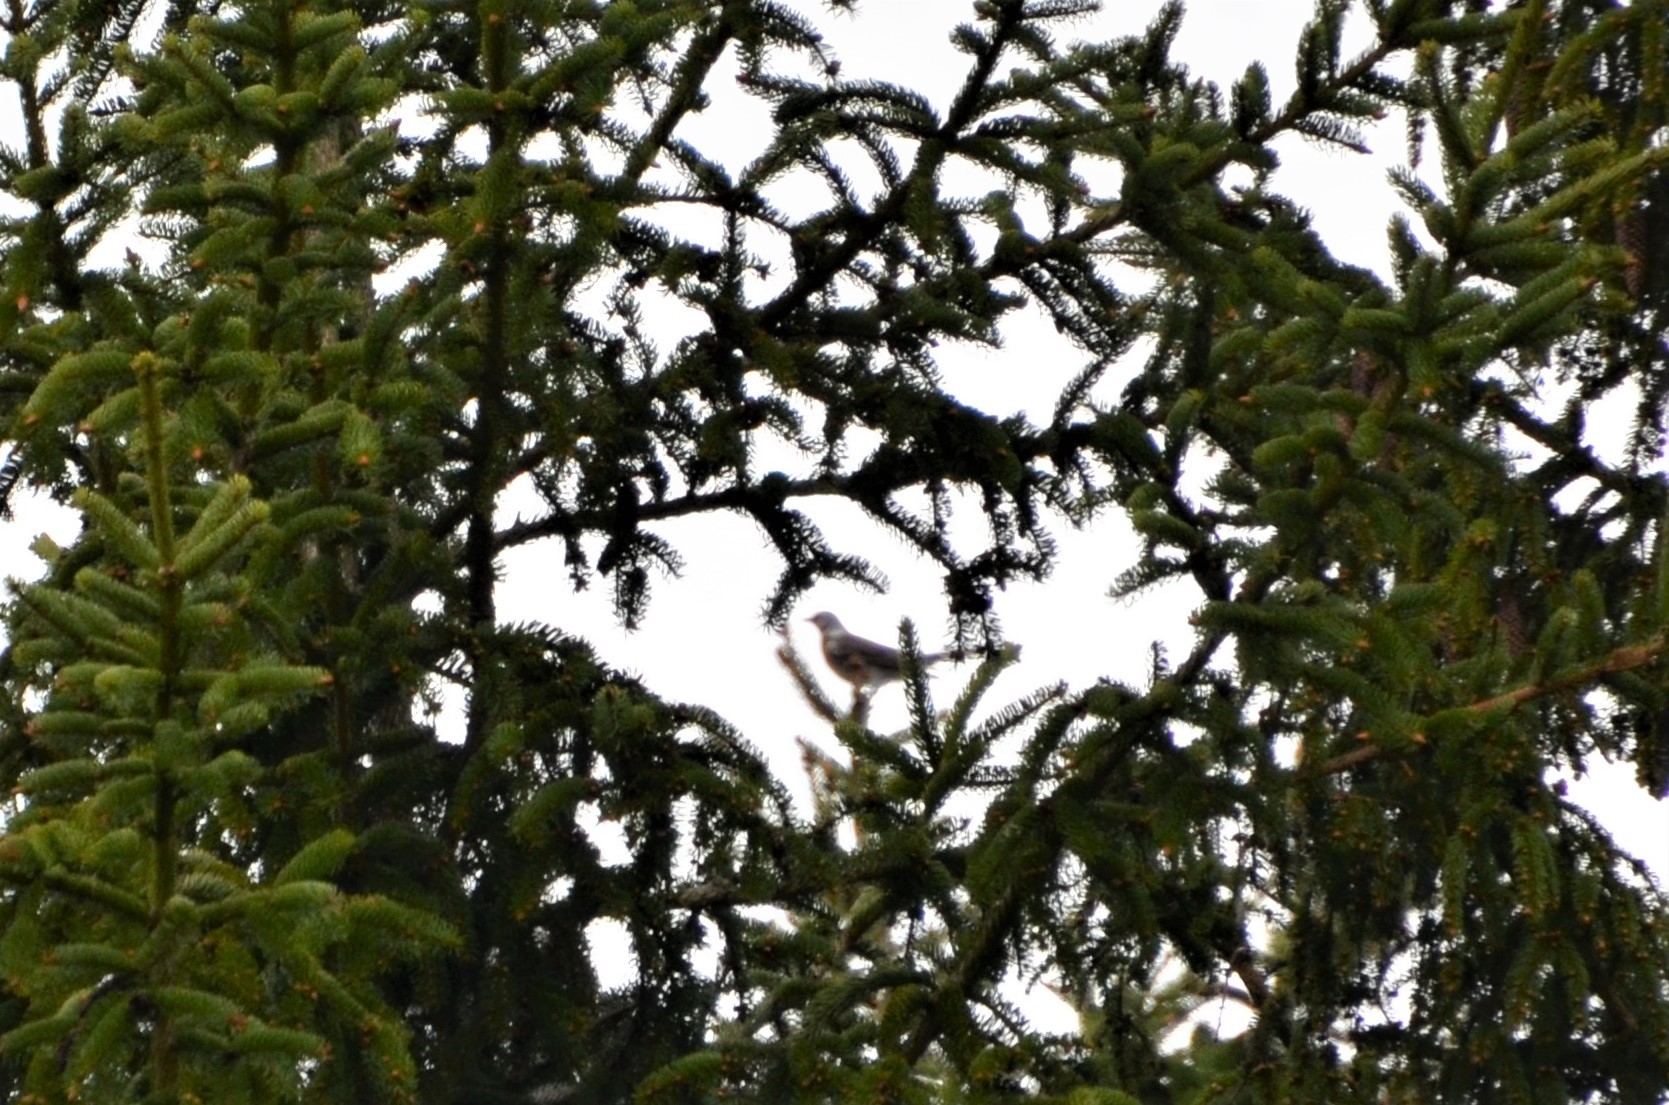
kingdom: Animalia
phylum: Chordata
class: Aves
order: Passeriformes
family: Turdidae
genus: Turdus
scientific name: Turdus pilaris
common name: Fieldfare
